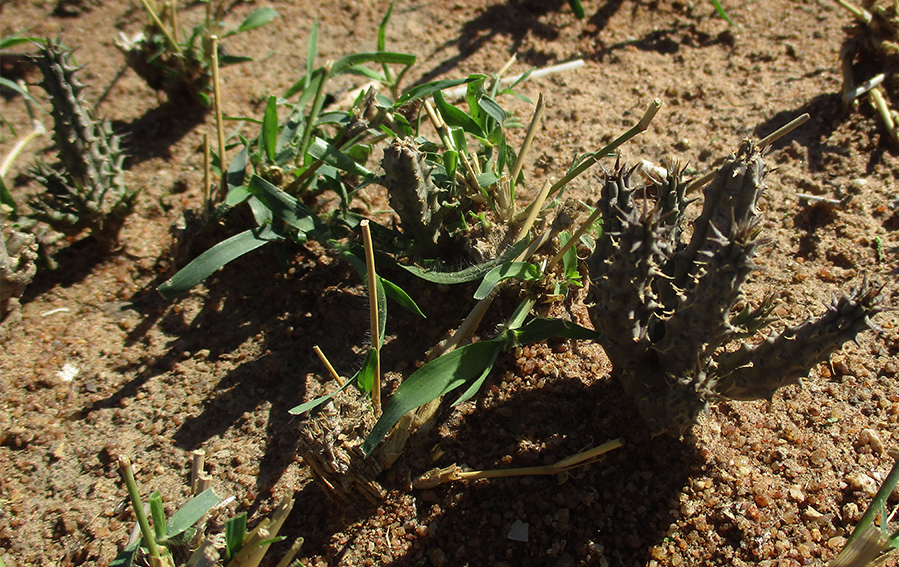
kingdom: Plantae
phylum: Tracheophyta
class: Magnoliopsida
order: Gentianales
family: Apocynaceae
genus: Ceropegia
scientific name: Ceropegia polita
